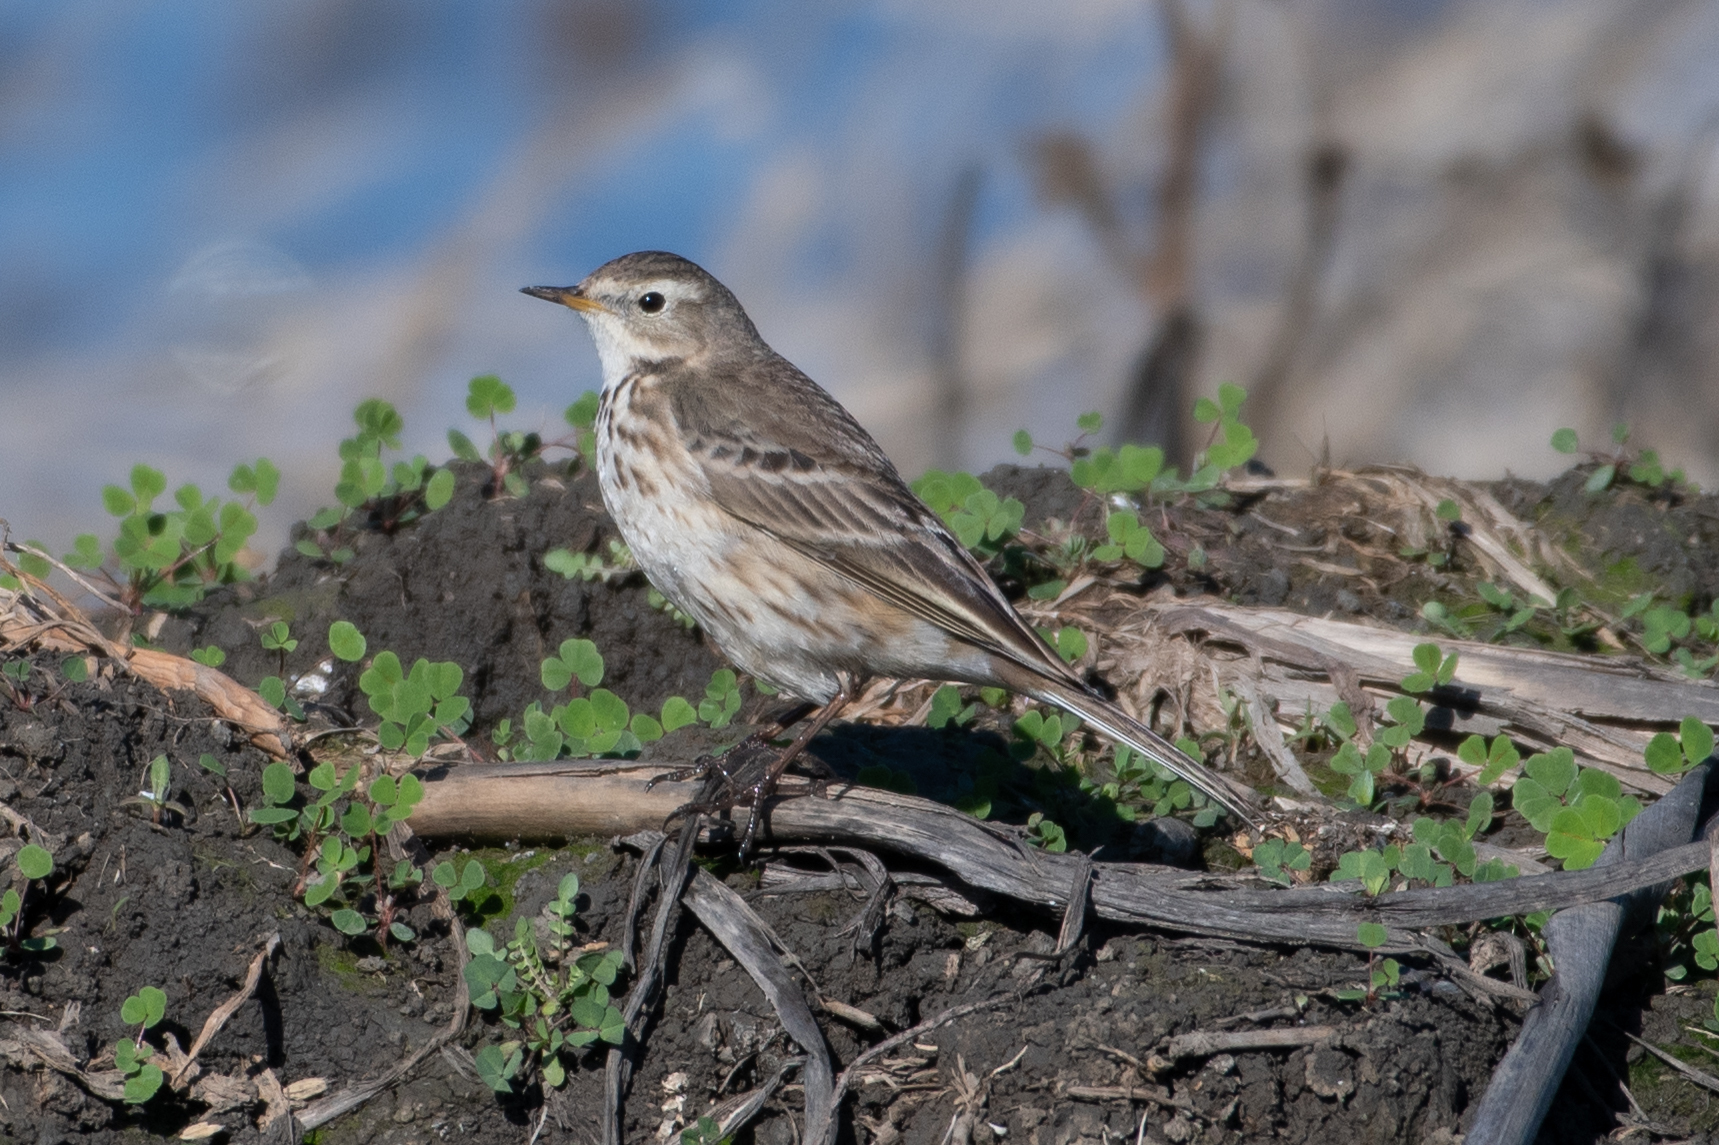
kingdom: Animalia
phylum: Chordata
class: Aves
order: Passeriformes
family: Motacillidae
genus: Anthus
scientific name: Anthus rubescens
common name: Buff-bellied pipit
